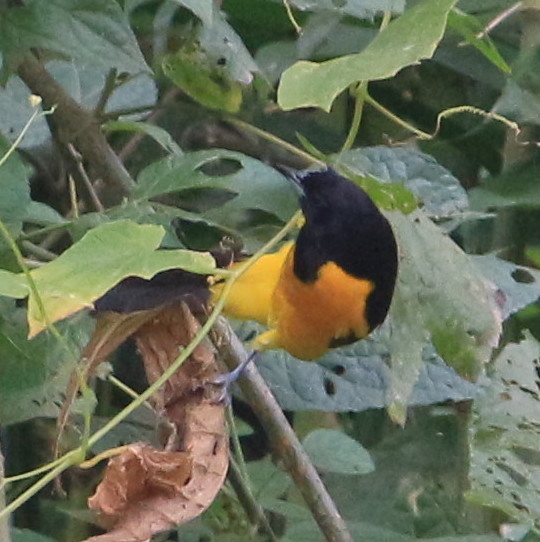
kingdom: Animalia
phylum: Chordata
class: Aves
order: Passeriformes
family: Icteridae
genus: Icterus
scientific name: Icterus maculialatus
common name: Bar-winged oriole
